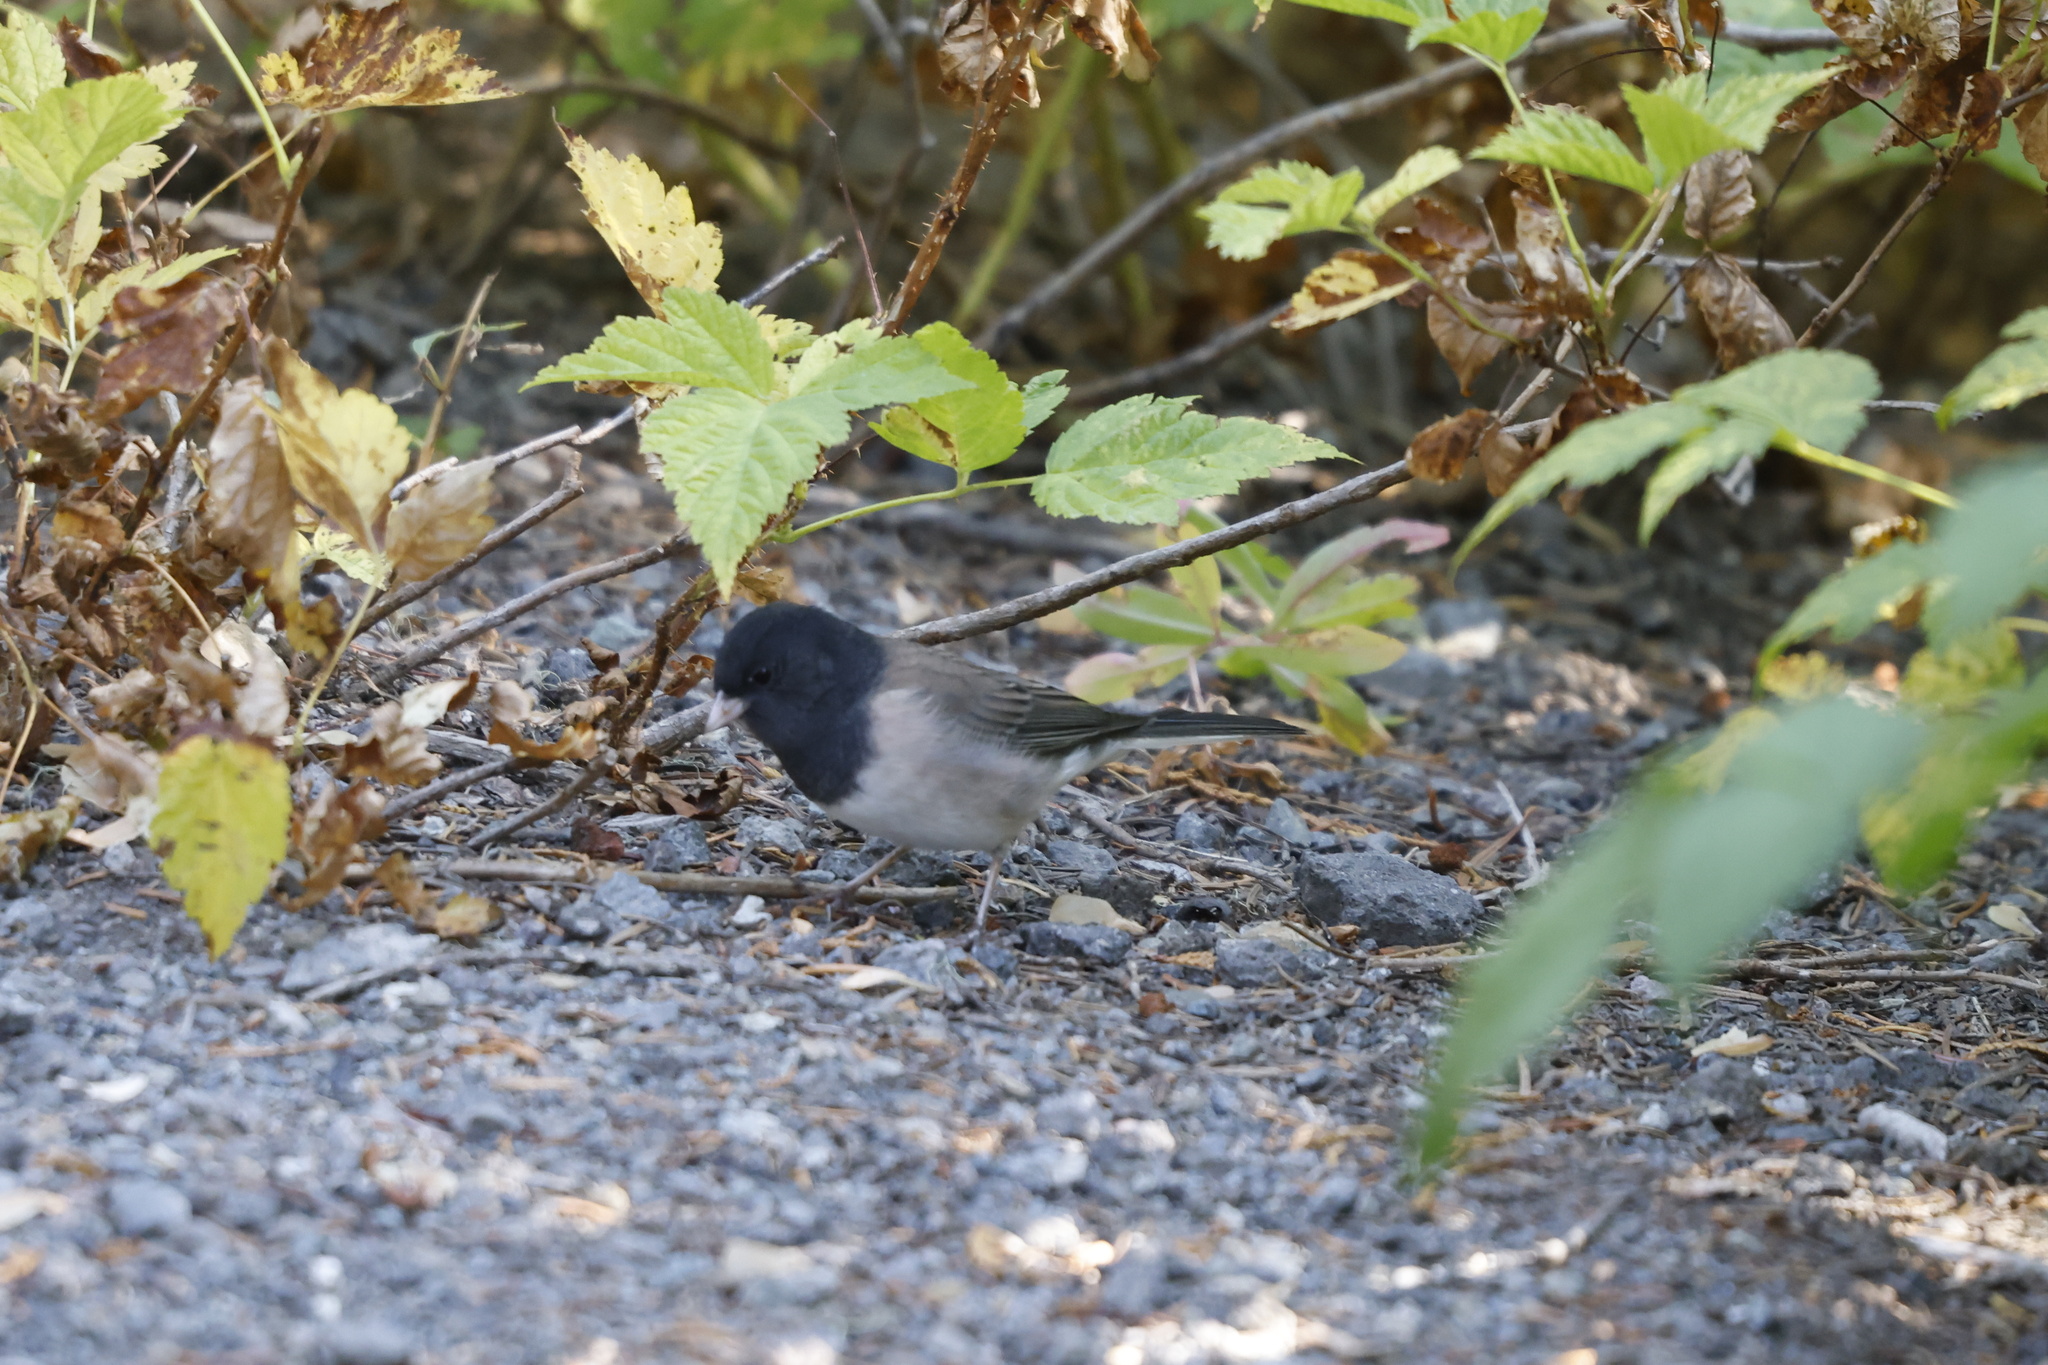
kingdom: Animalia
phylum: Chordata
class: Aves
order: Passeriformes
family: Passerellidae
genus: Junco
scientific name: Junco hyemalis
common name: Dark-eyed junco
